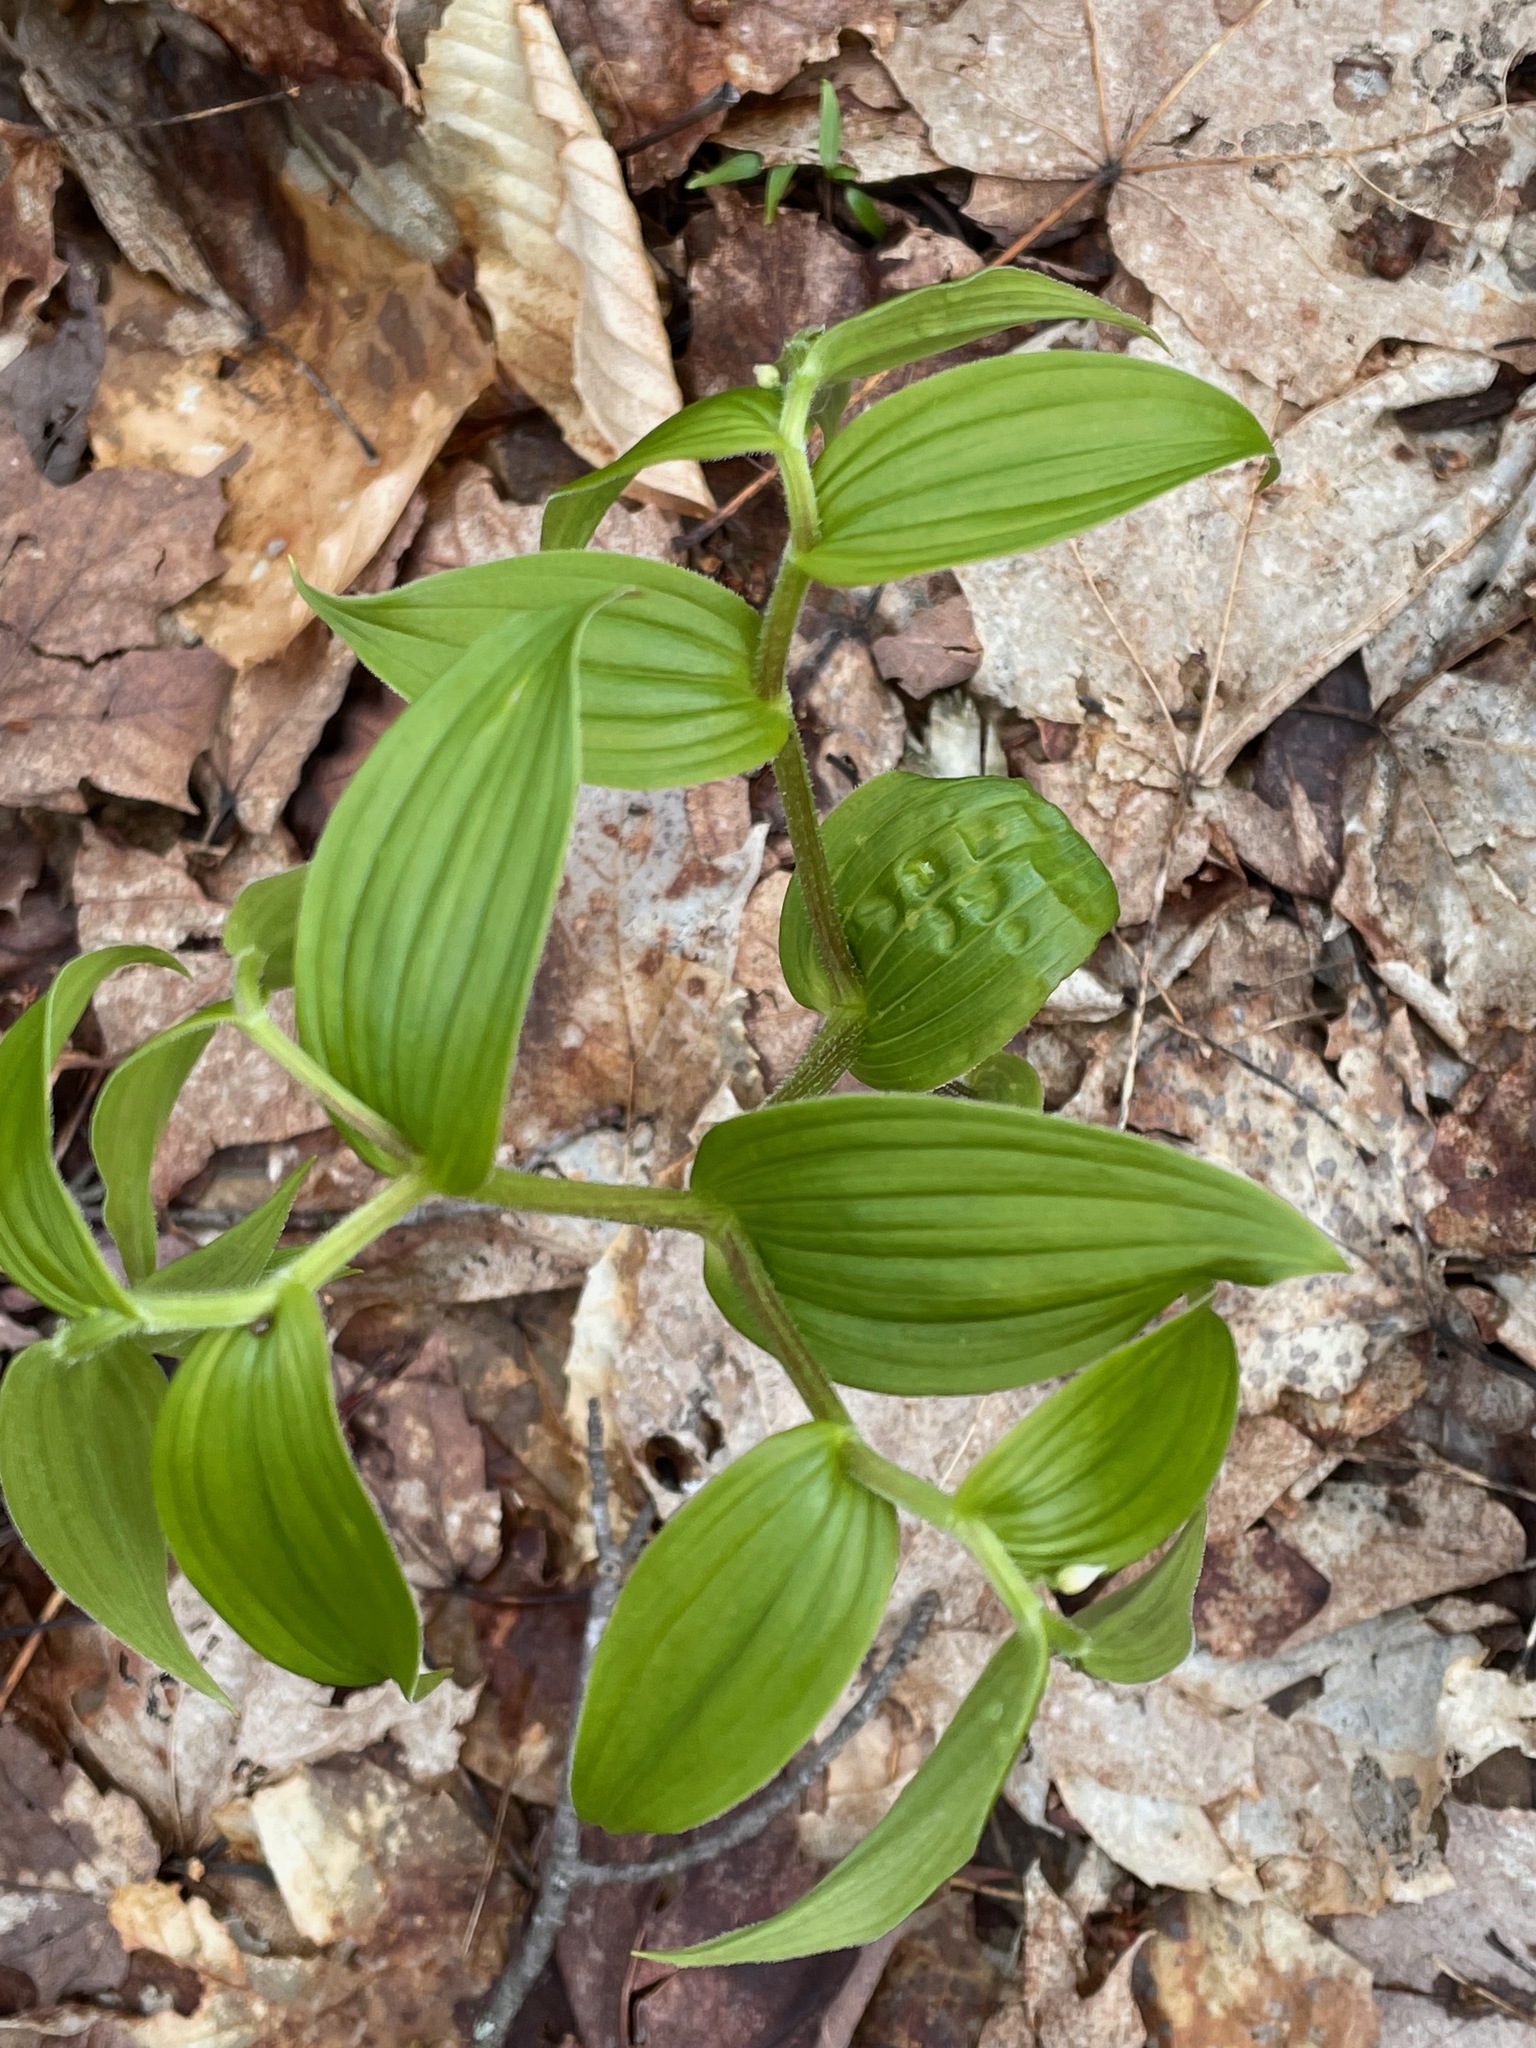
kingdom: Plantae
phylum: Tracheophyta
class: Liliopsida
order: Liliales
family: Liliaceae
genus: Streptopus
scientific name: Streptopus lanceolatus
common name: Rose mandarin
